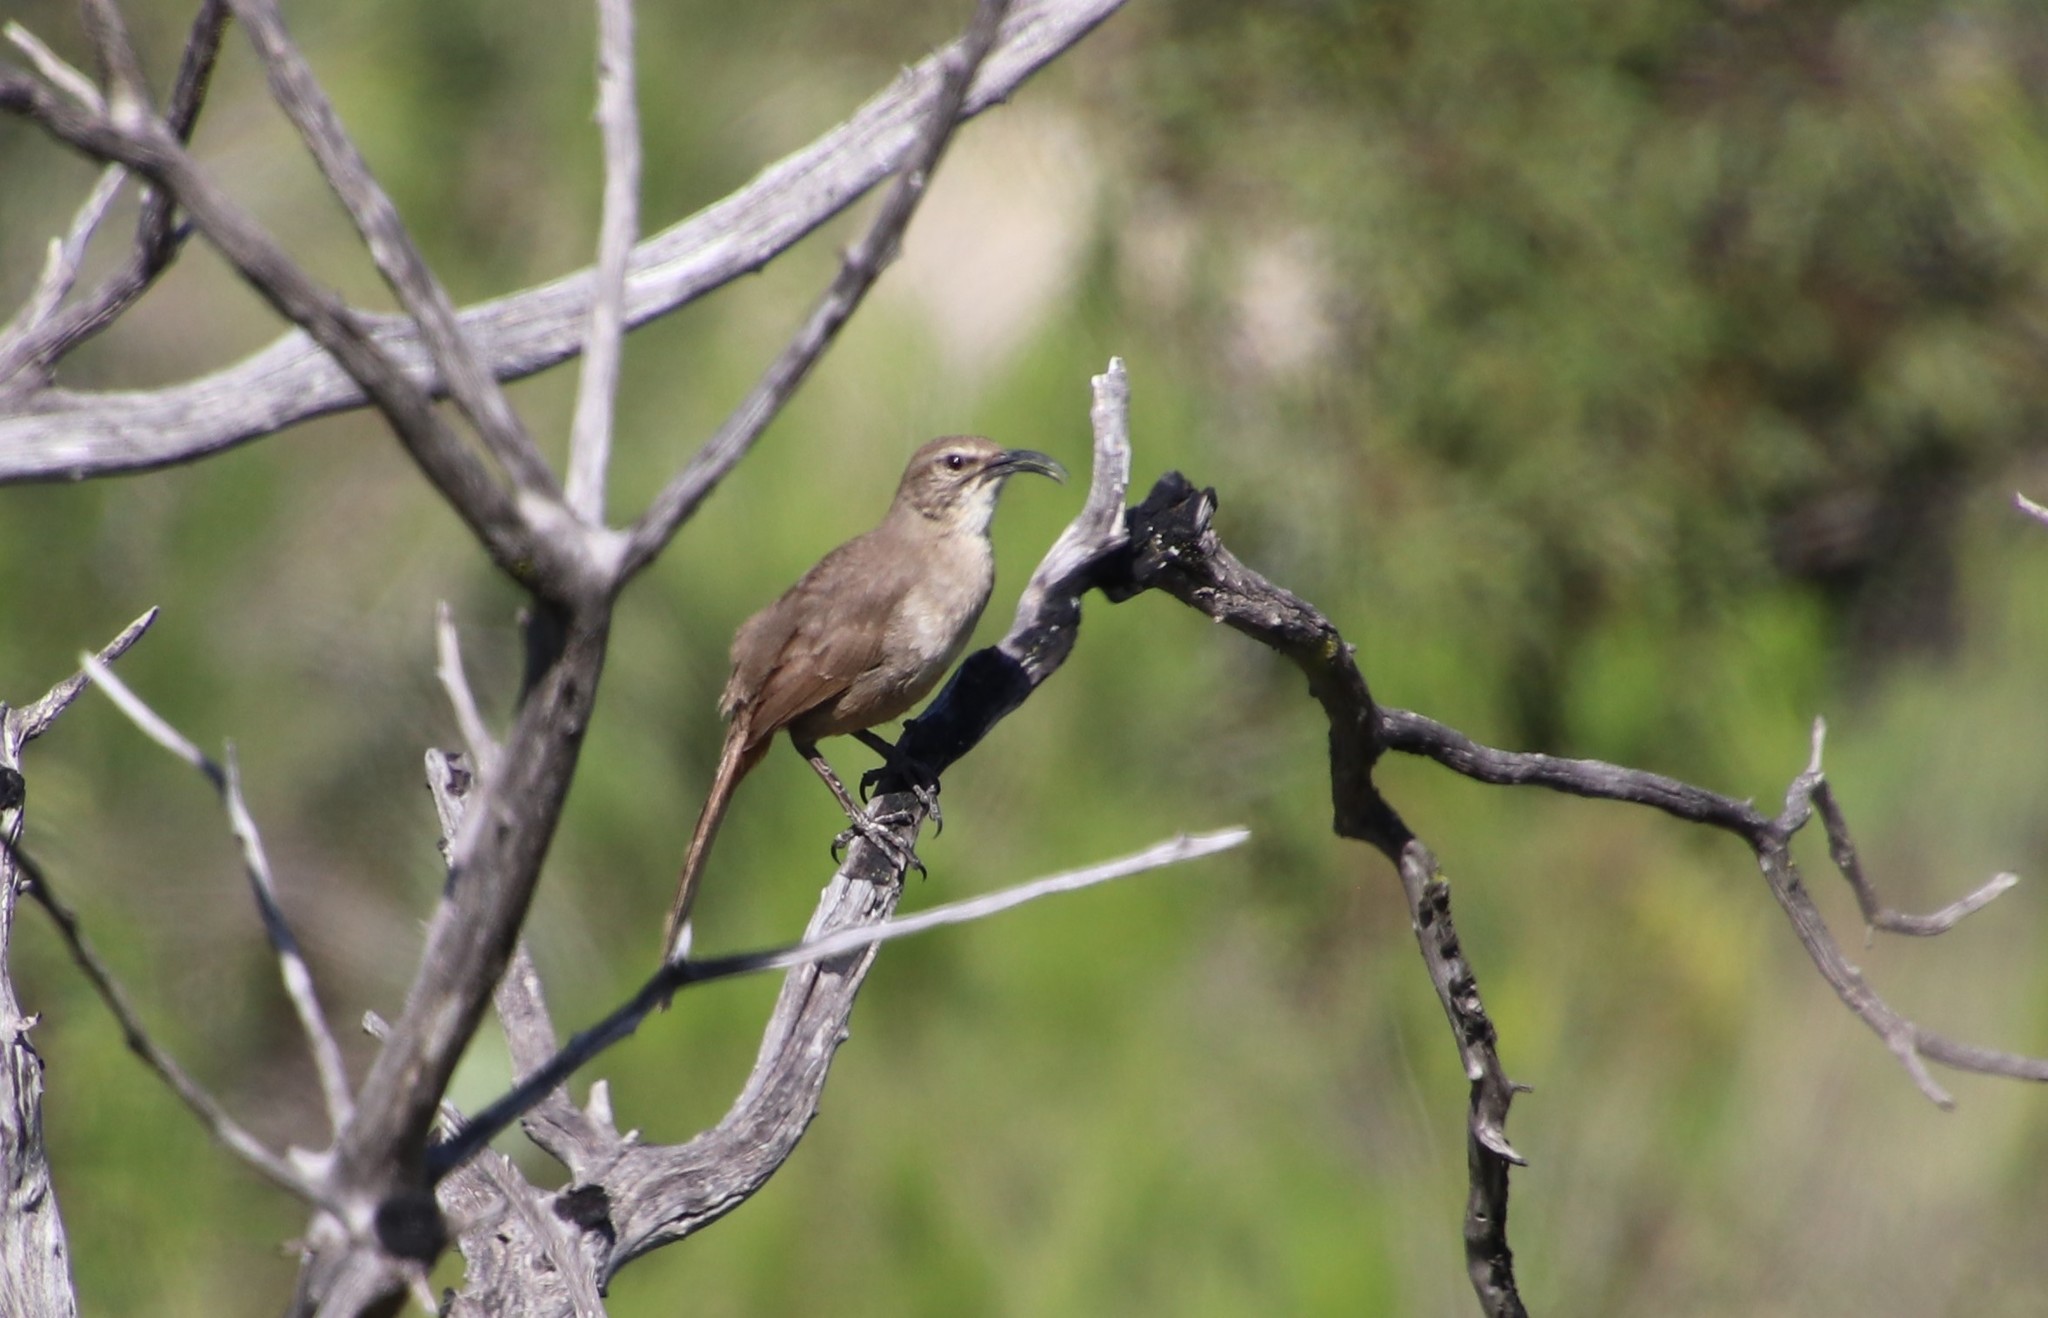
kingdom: Animalia
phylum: Chordata
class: Aves
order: Passeriformes
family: Mimidae
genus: Toxostoma
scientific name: Toxostoma redivivum
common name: California thrasher
